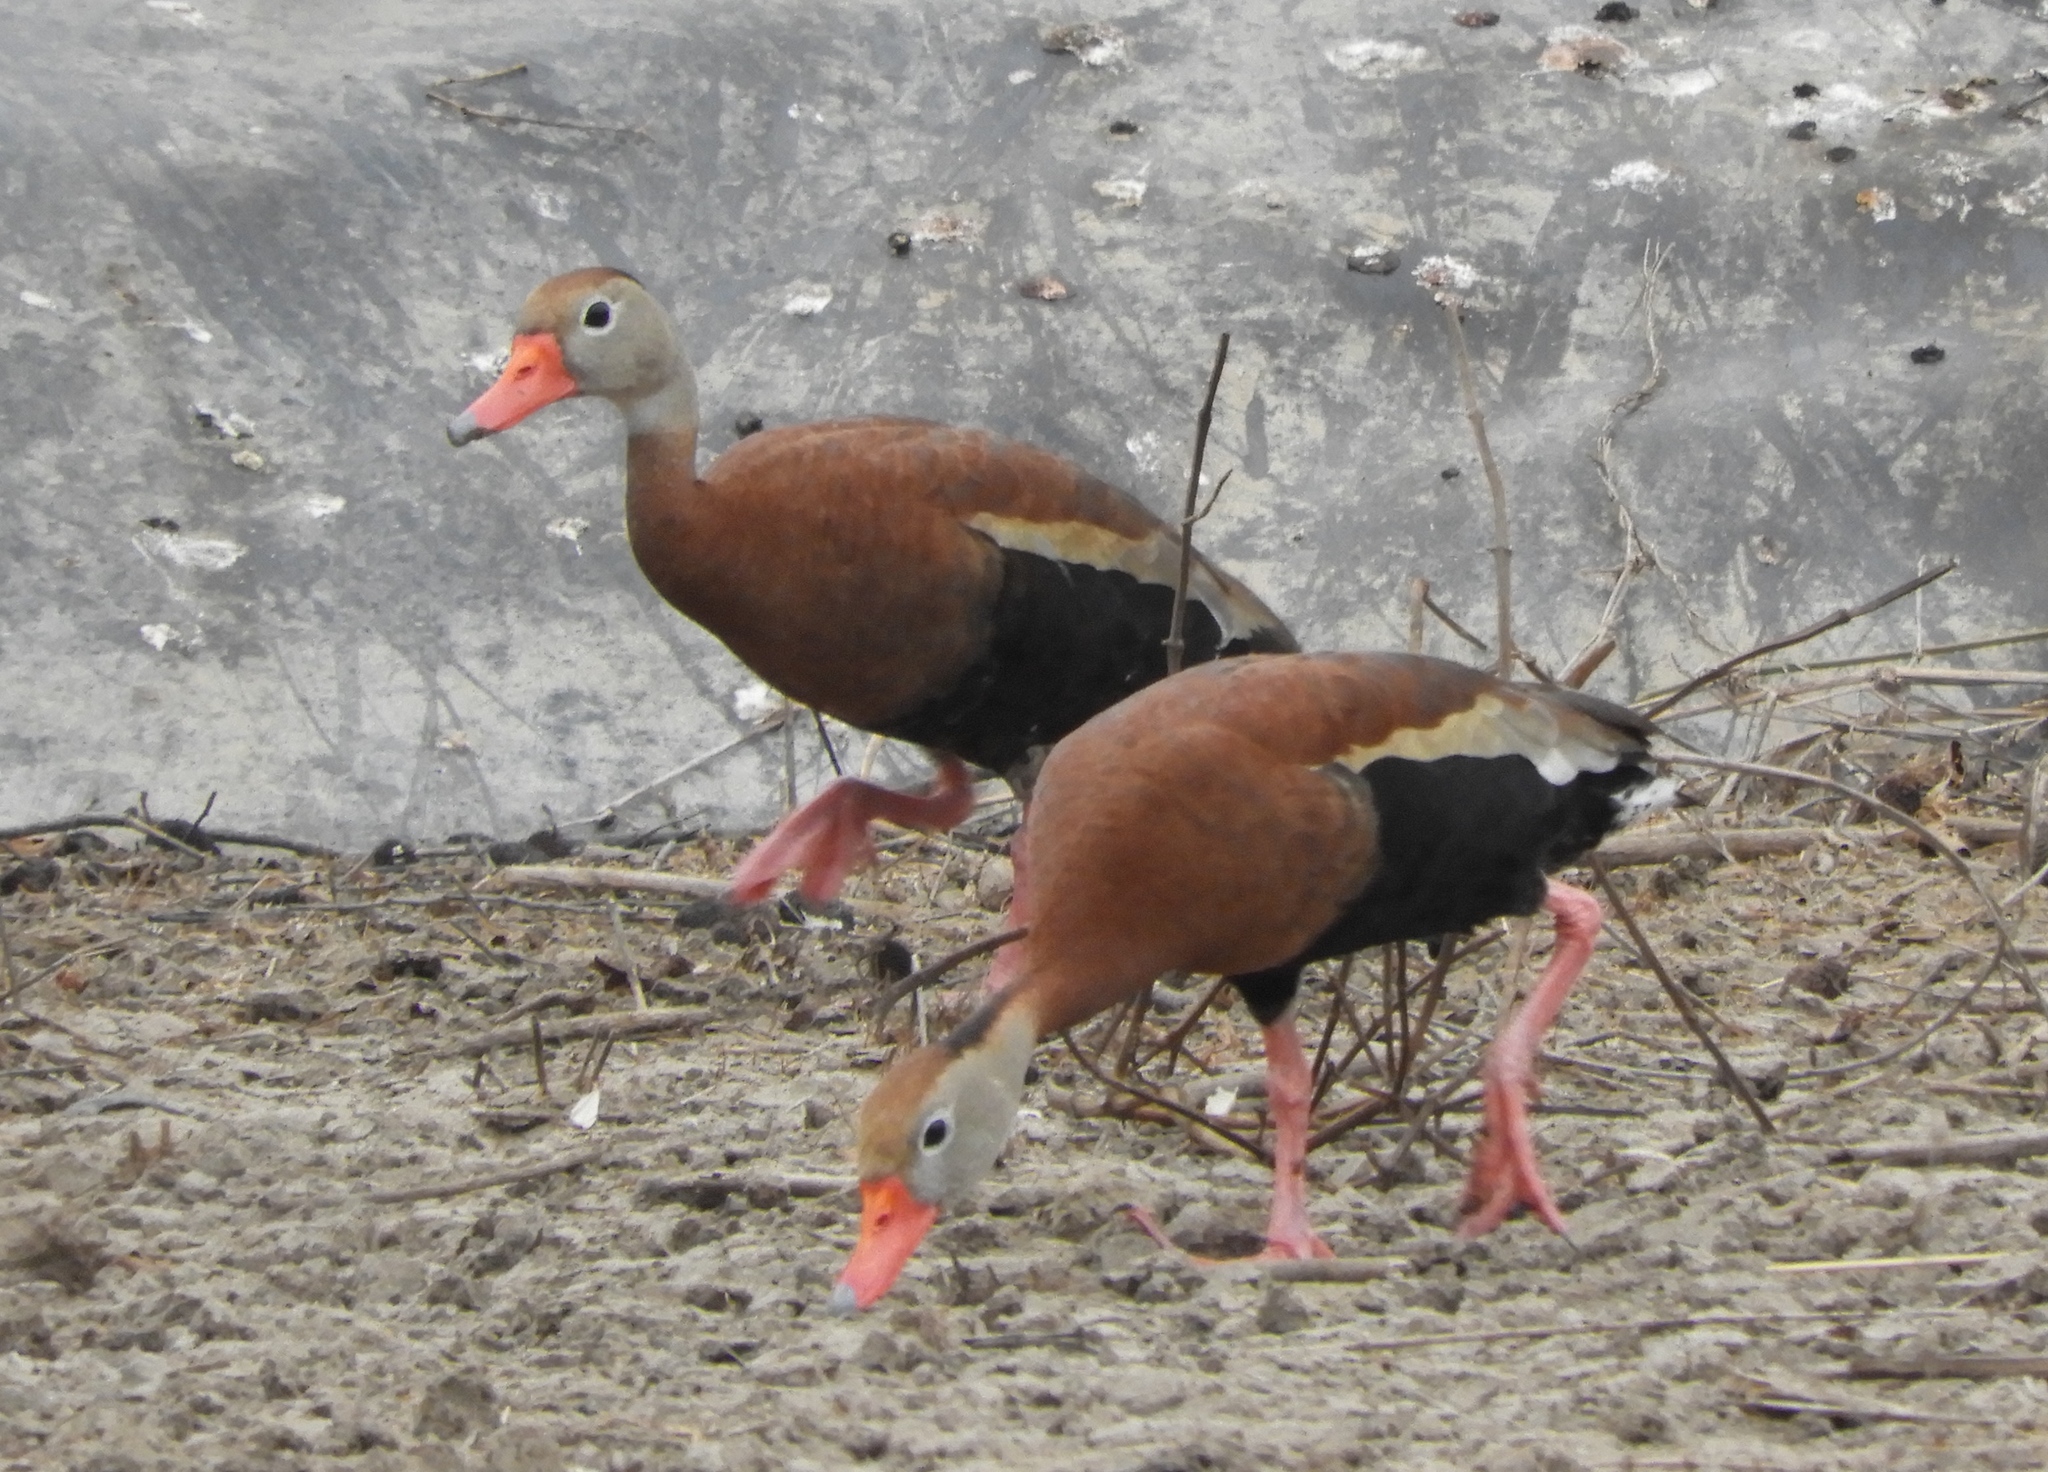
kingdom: Animalia
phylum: Chordata
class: Aves
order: Anseriformes
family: Anatidae
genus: Dendrocygna
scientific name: Dendrocygna autumnalis
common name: Black-bellied whistling duck
